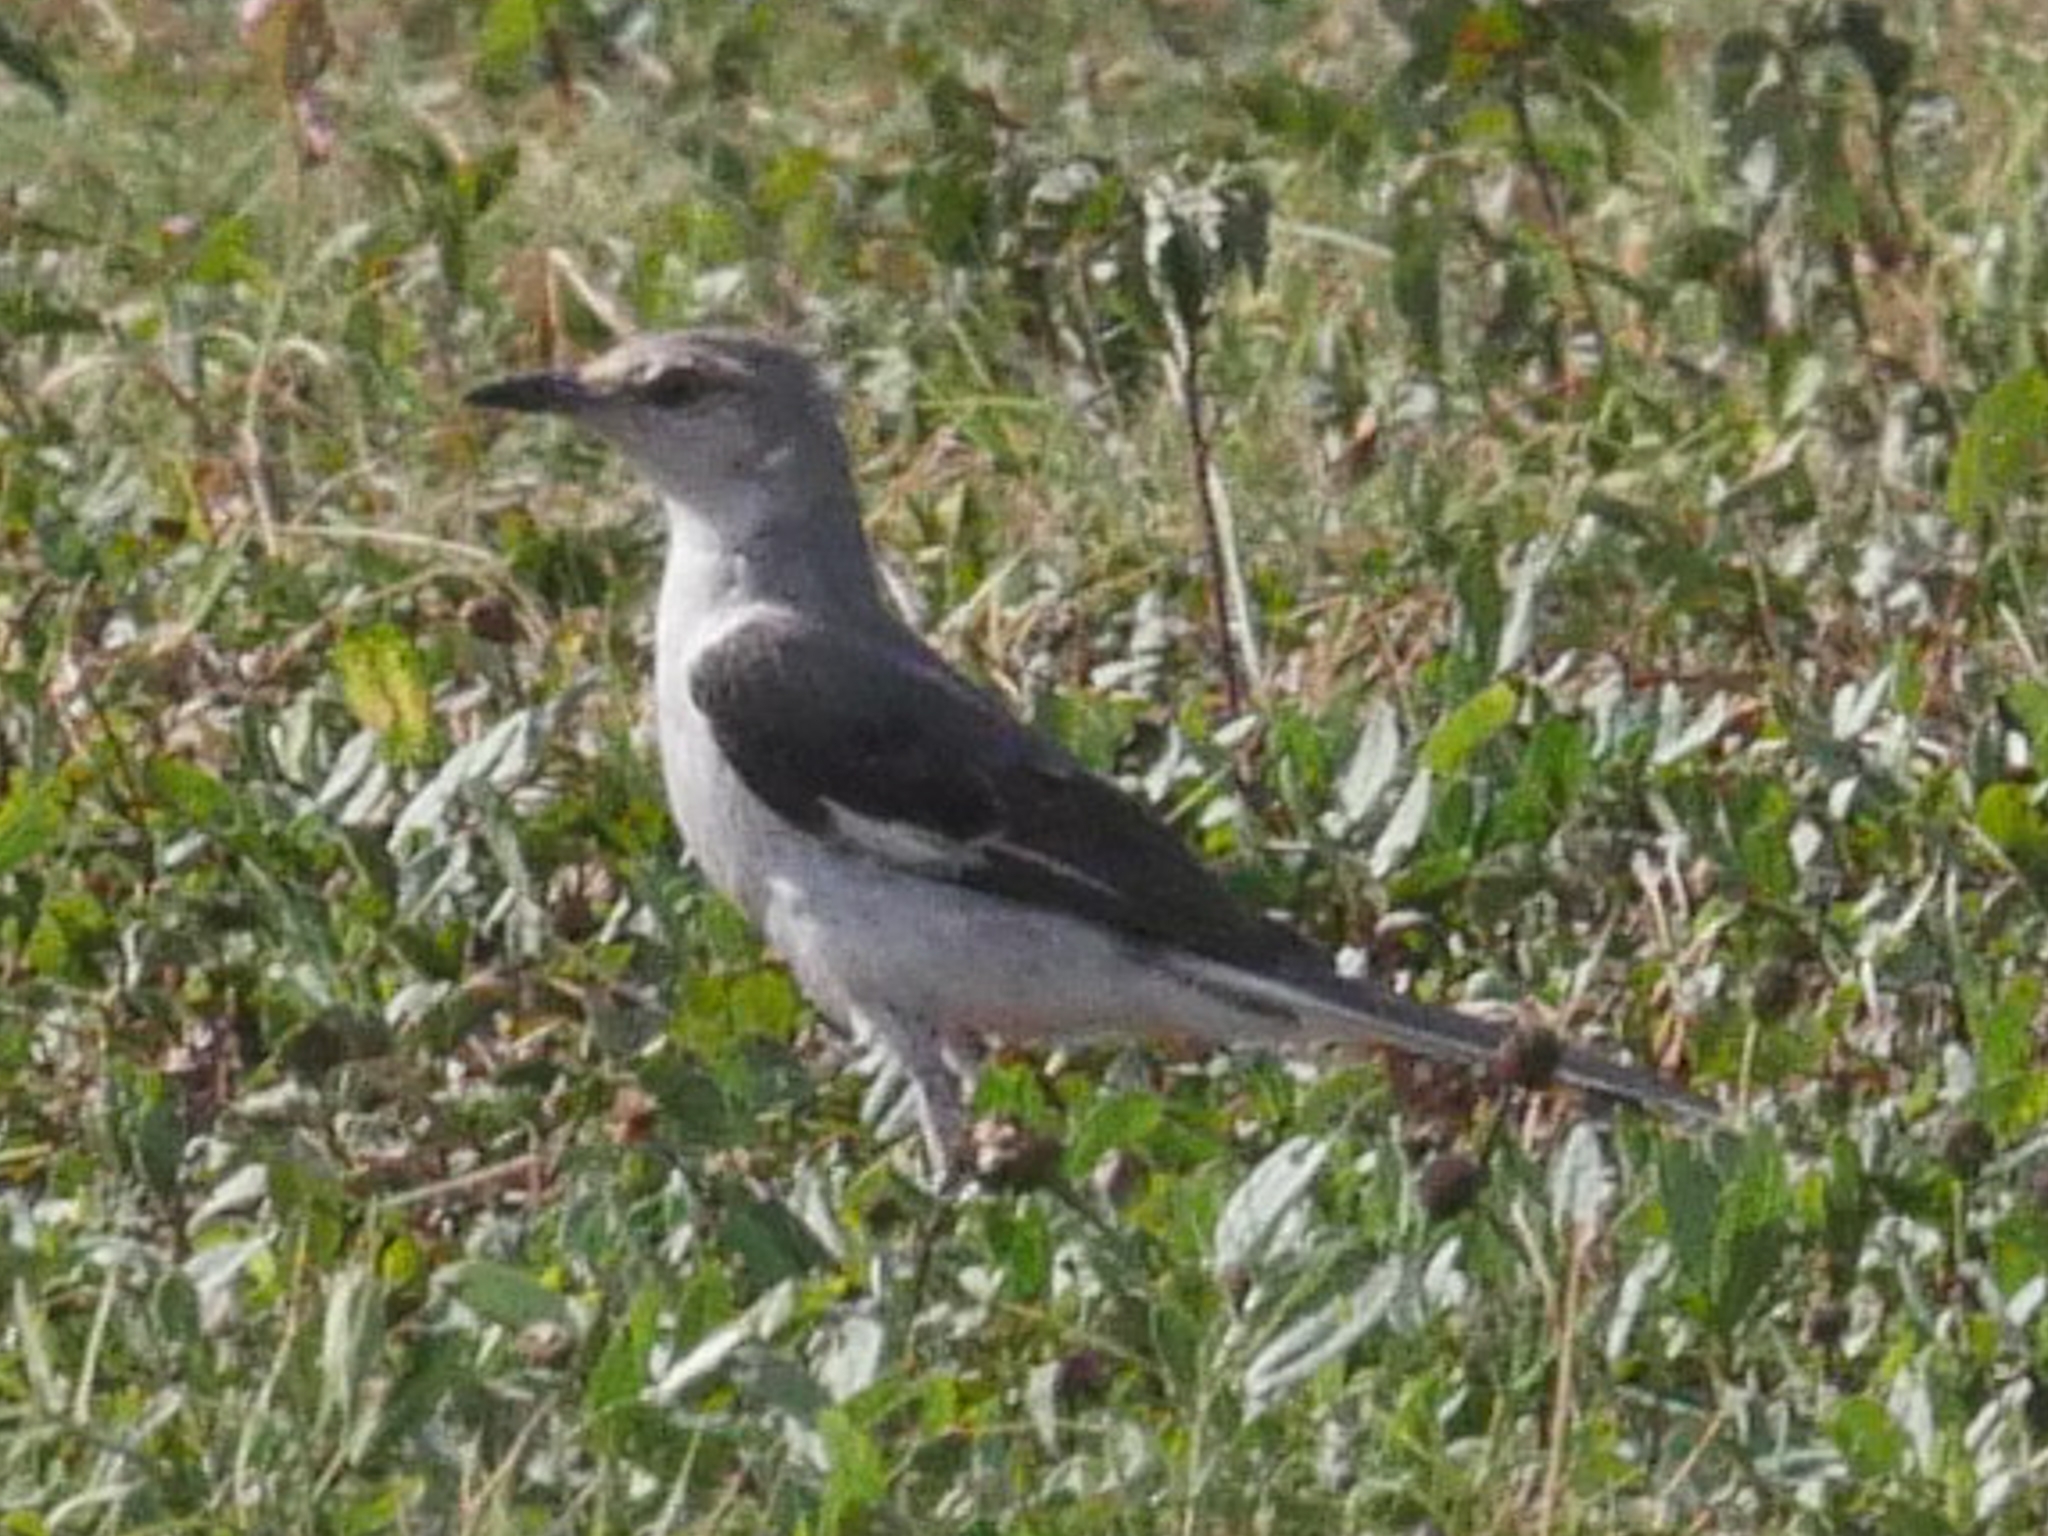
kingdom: Animalia
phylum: Chordata
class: Aves
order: Passeriformes
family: Mimidae
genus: Mimus
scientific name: Mimus polyglottos
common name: Northern mockingbird
